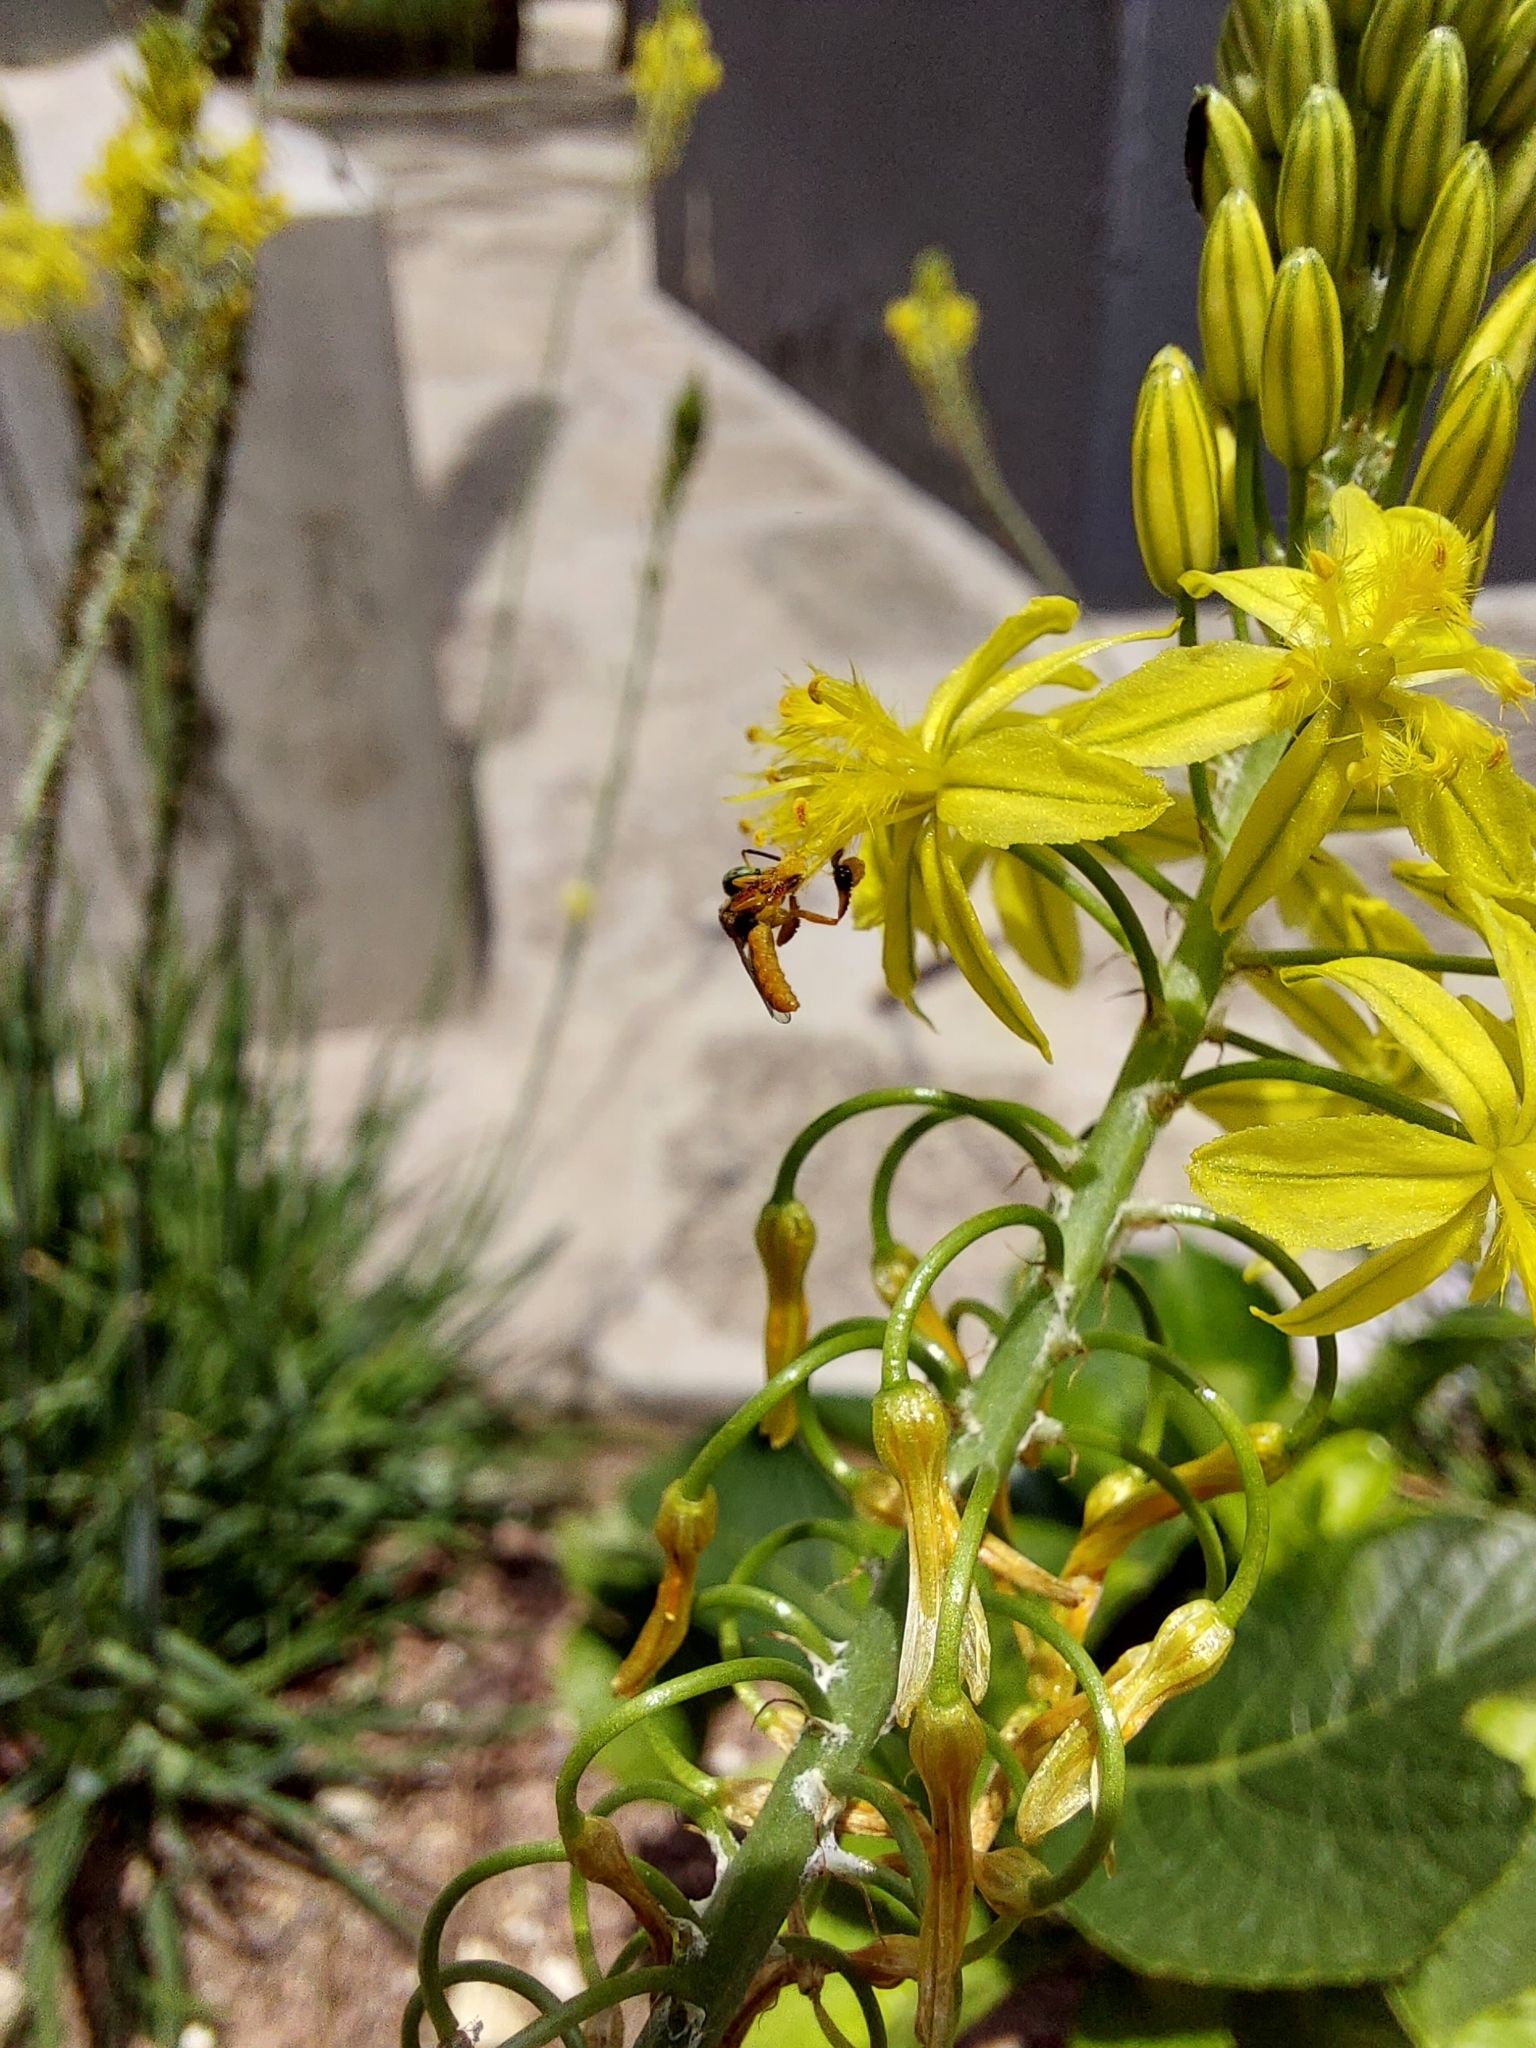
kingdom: Animalia
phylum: Arthropoda
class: Insecta
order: Hymenoptera
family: Apidae
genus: Tetragonisca
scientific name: Tetragonisca angustula
